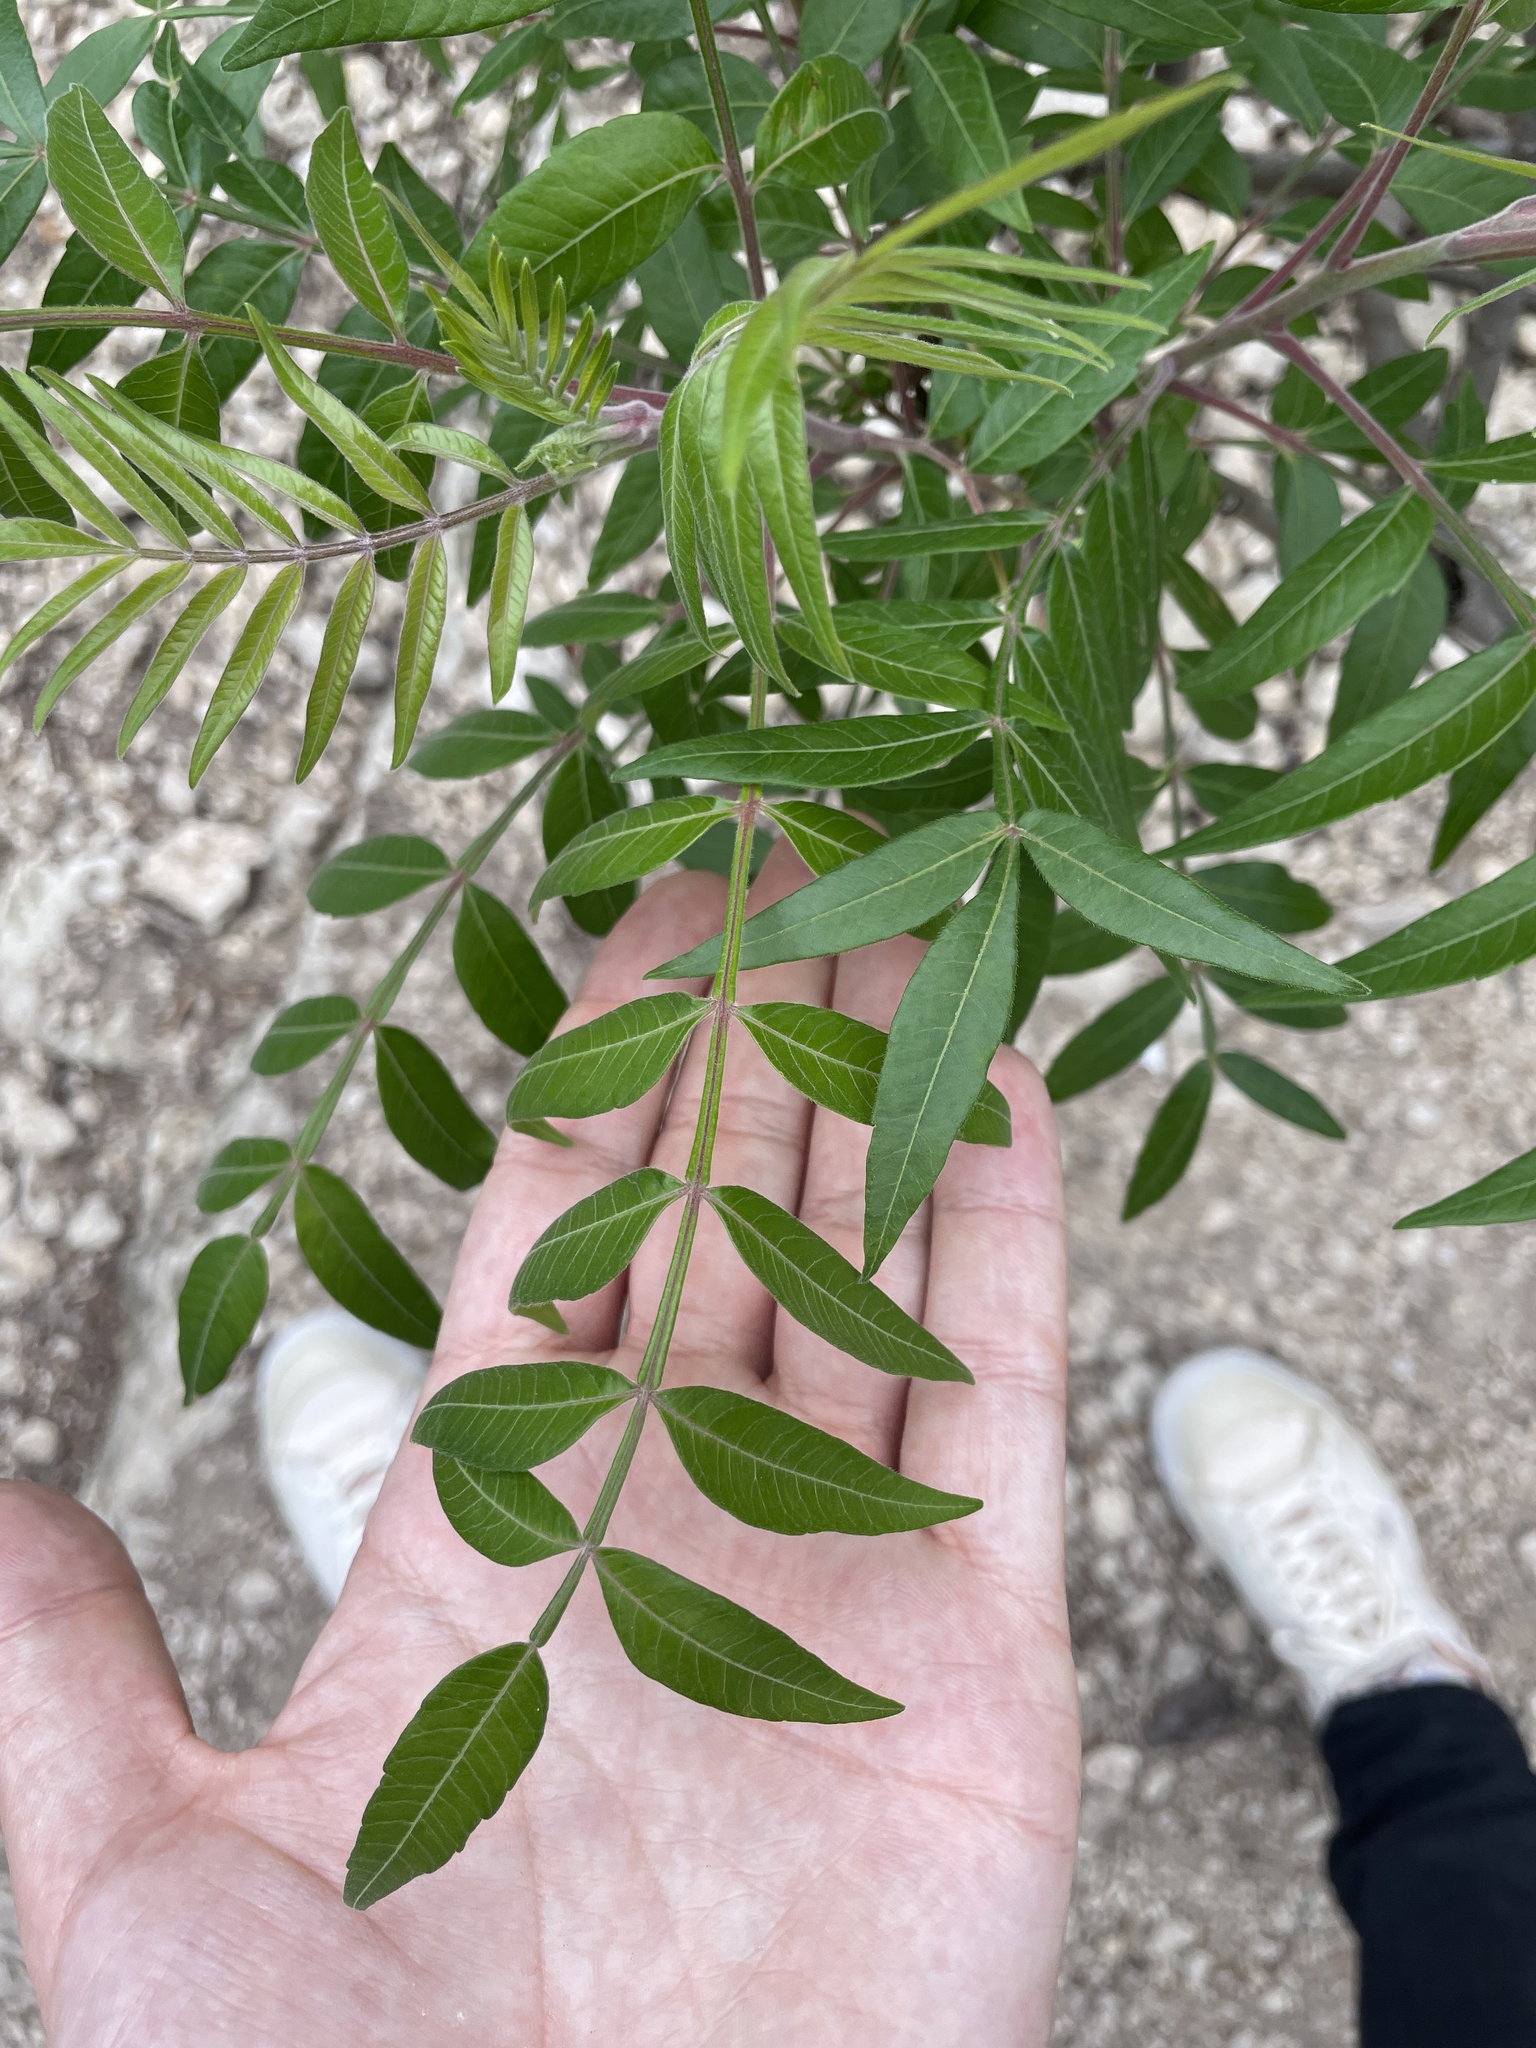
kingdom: Plantae
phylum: Tracheophyta
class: Magnoliopsida
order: Sapindales
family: Anacardiaceae
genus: Rhus
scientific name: Rhus lanceolata
